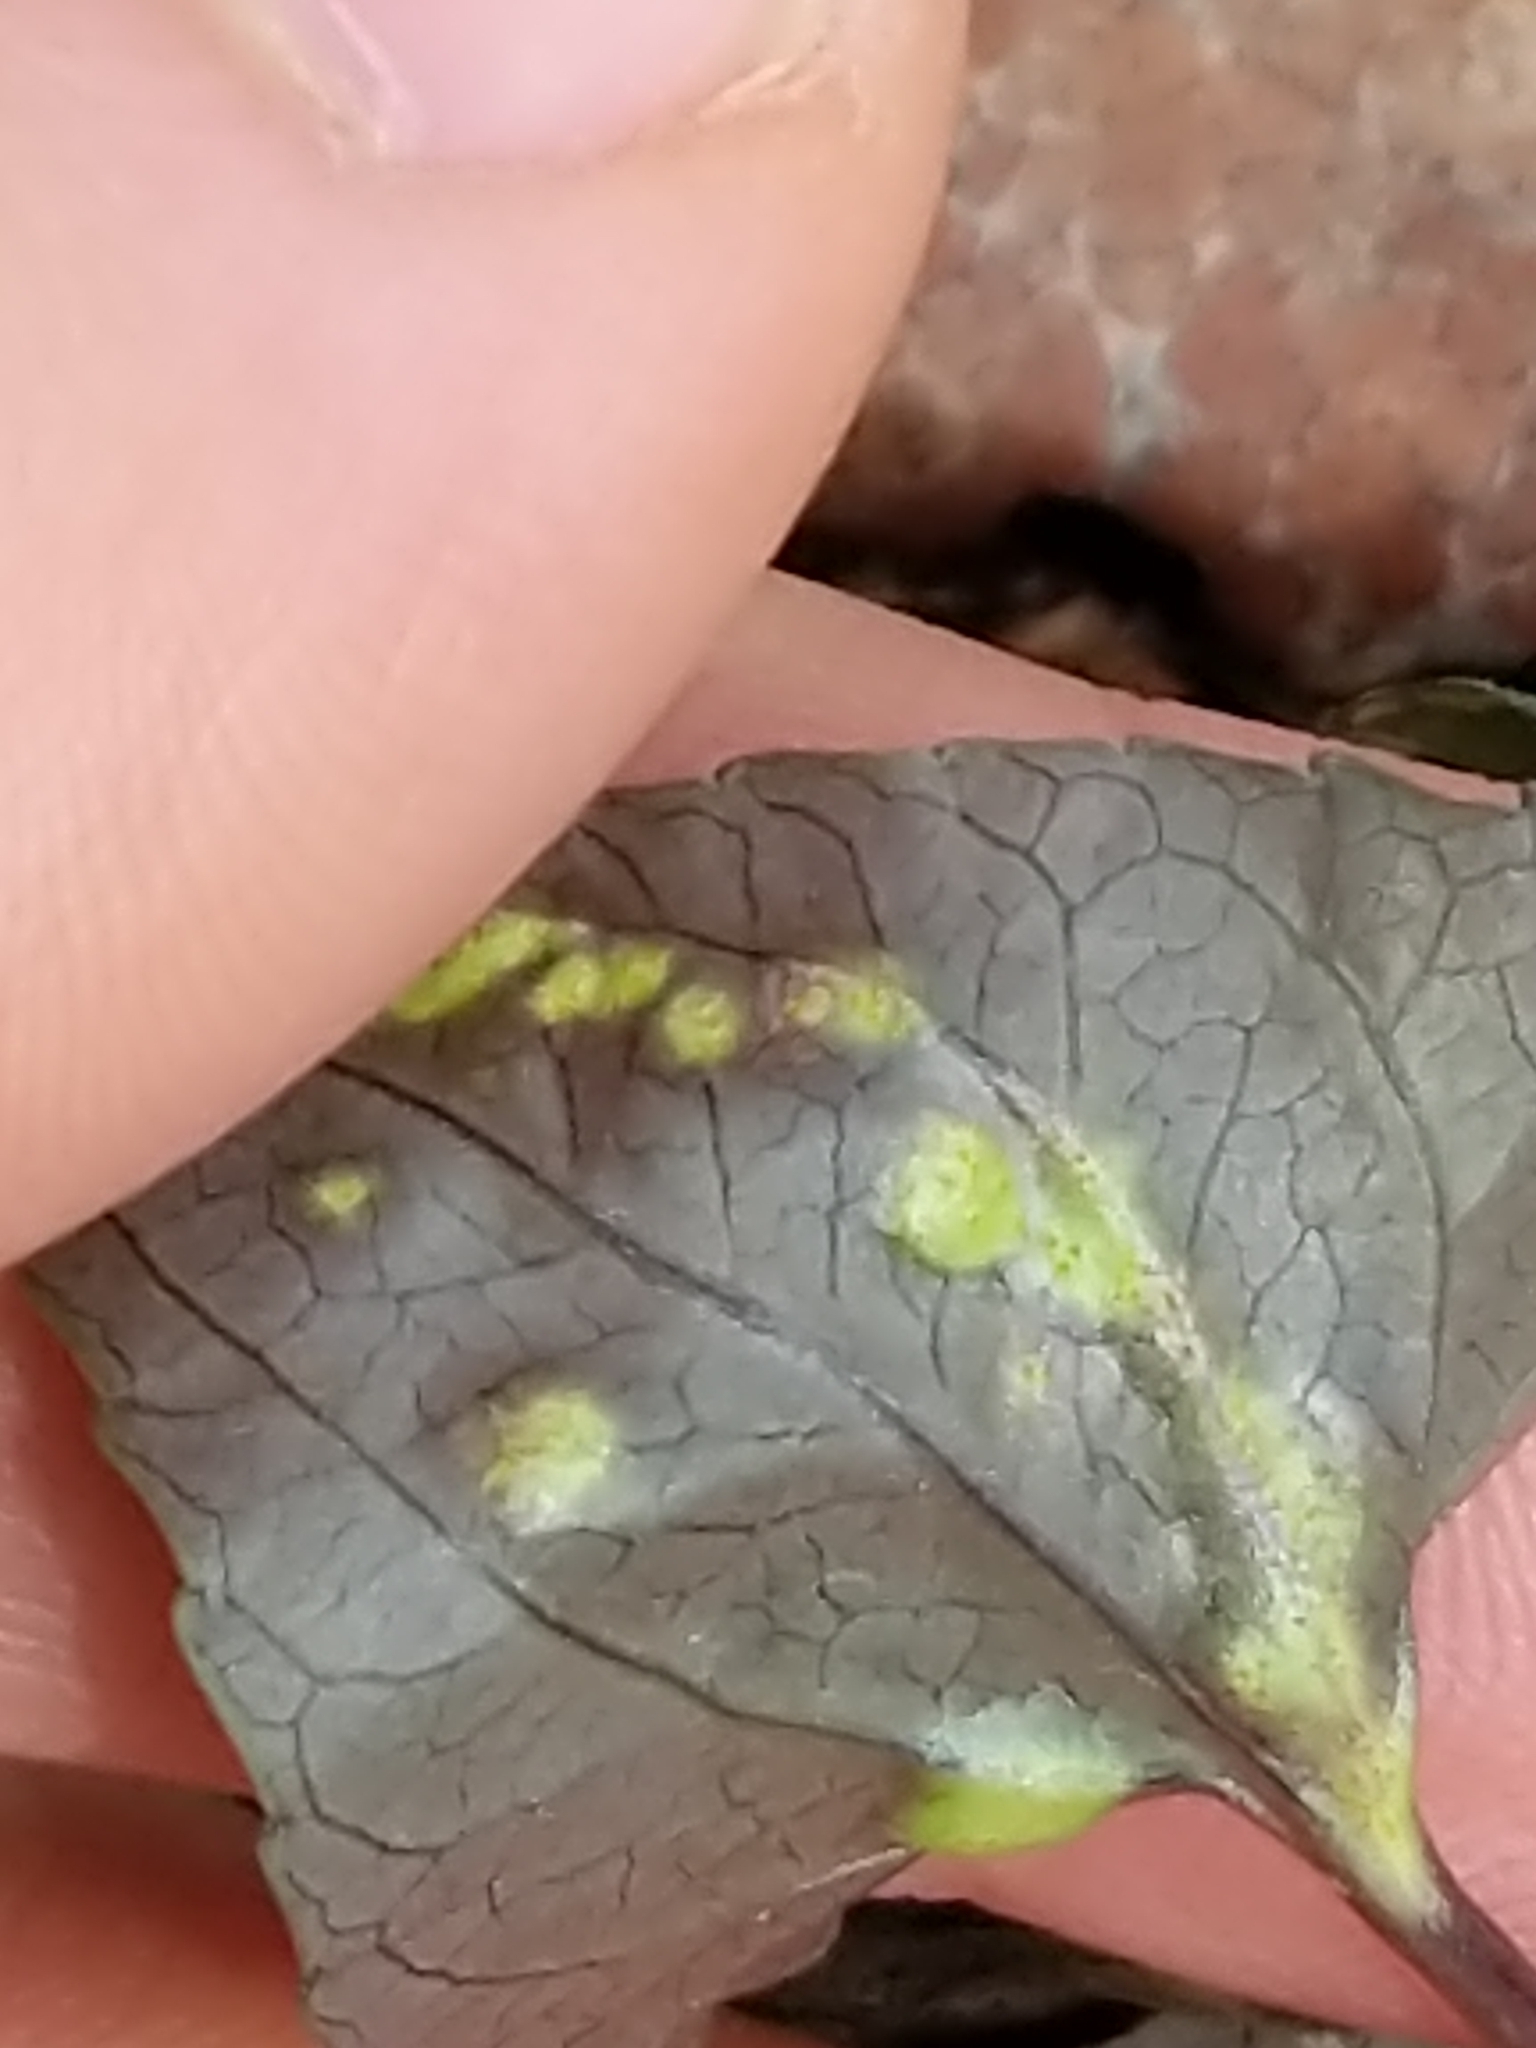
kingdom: Fungi
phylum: Basidiomycota
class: Pucciniomycetes
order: Pucciniales
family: Pucciniaceae
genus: Puccinia
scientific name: Puccinia violae
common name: Violet rust
